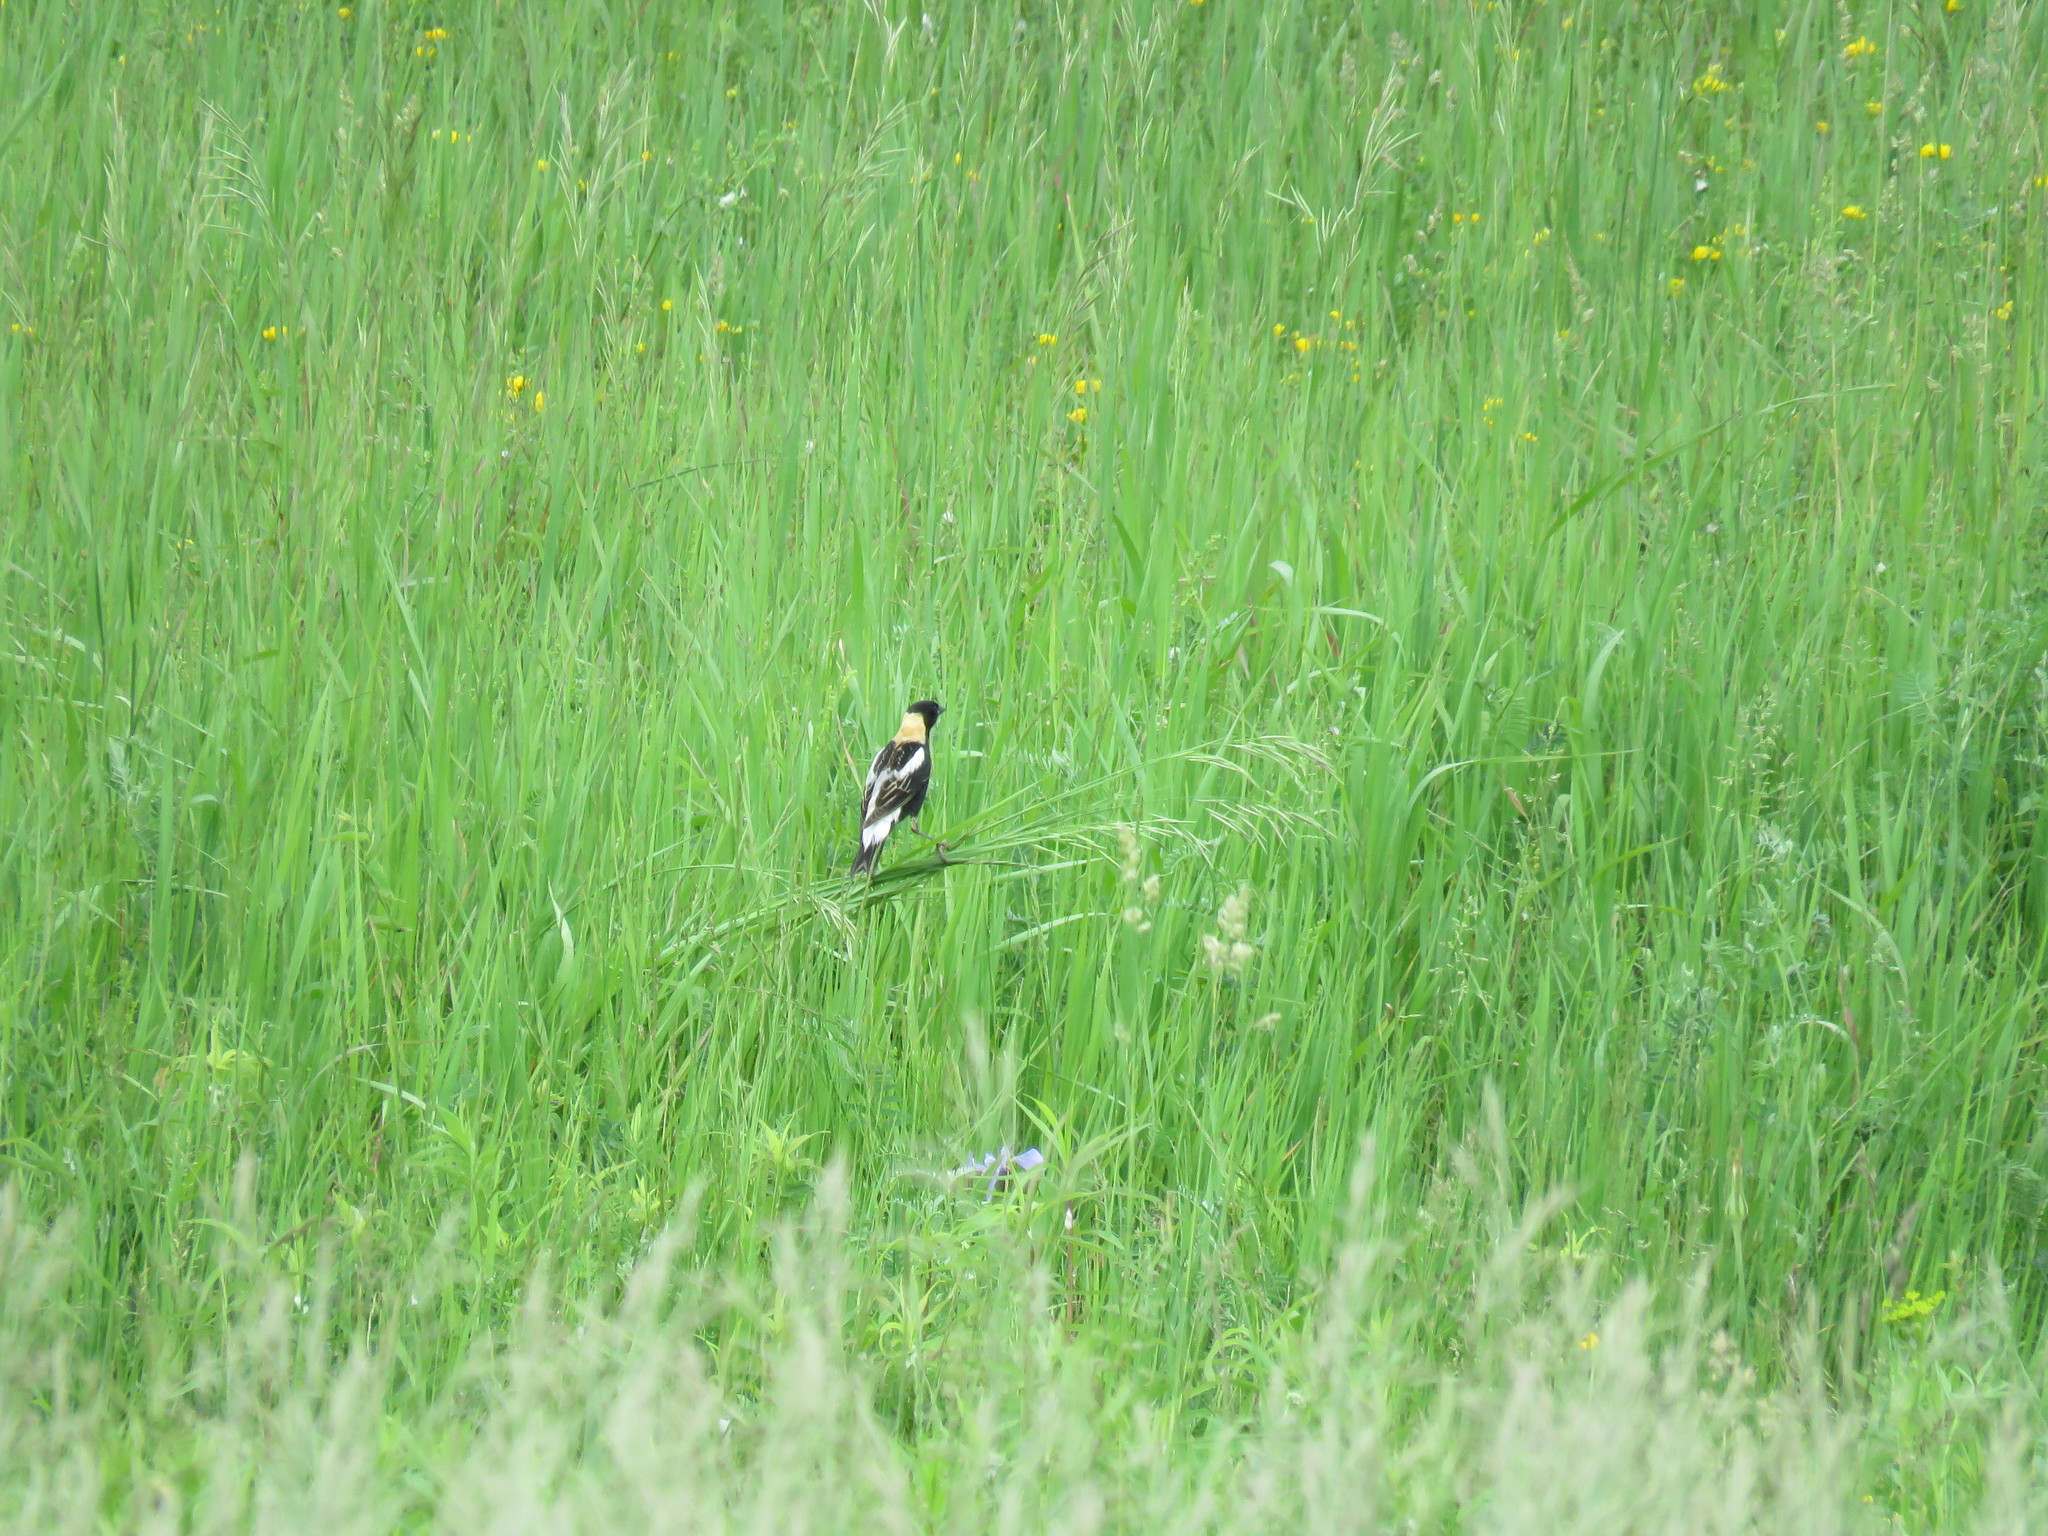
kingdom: Animalia
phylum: Chordata
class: Aves
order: Passeriformes
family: Icteridae
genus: Dolichonyx
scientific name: Dolichonyx oryzivorus
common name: Bobolink
